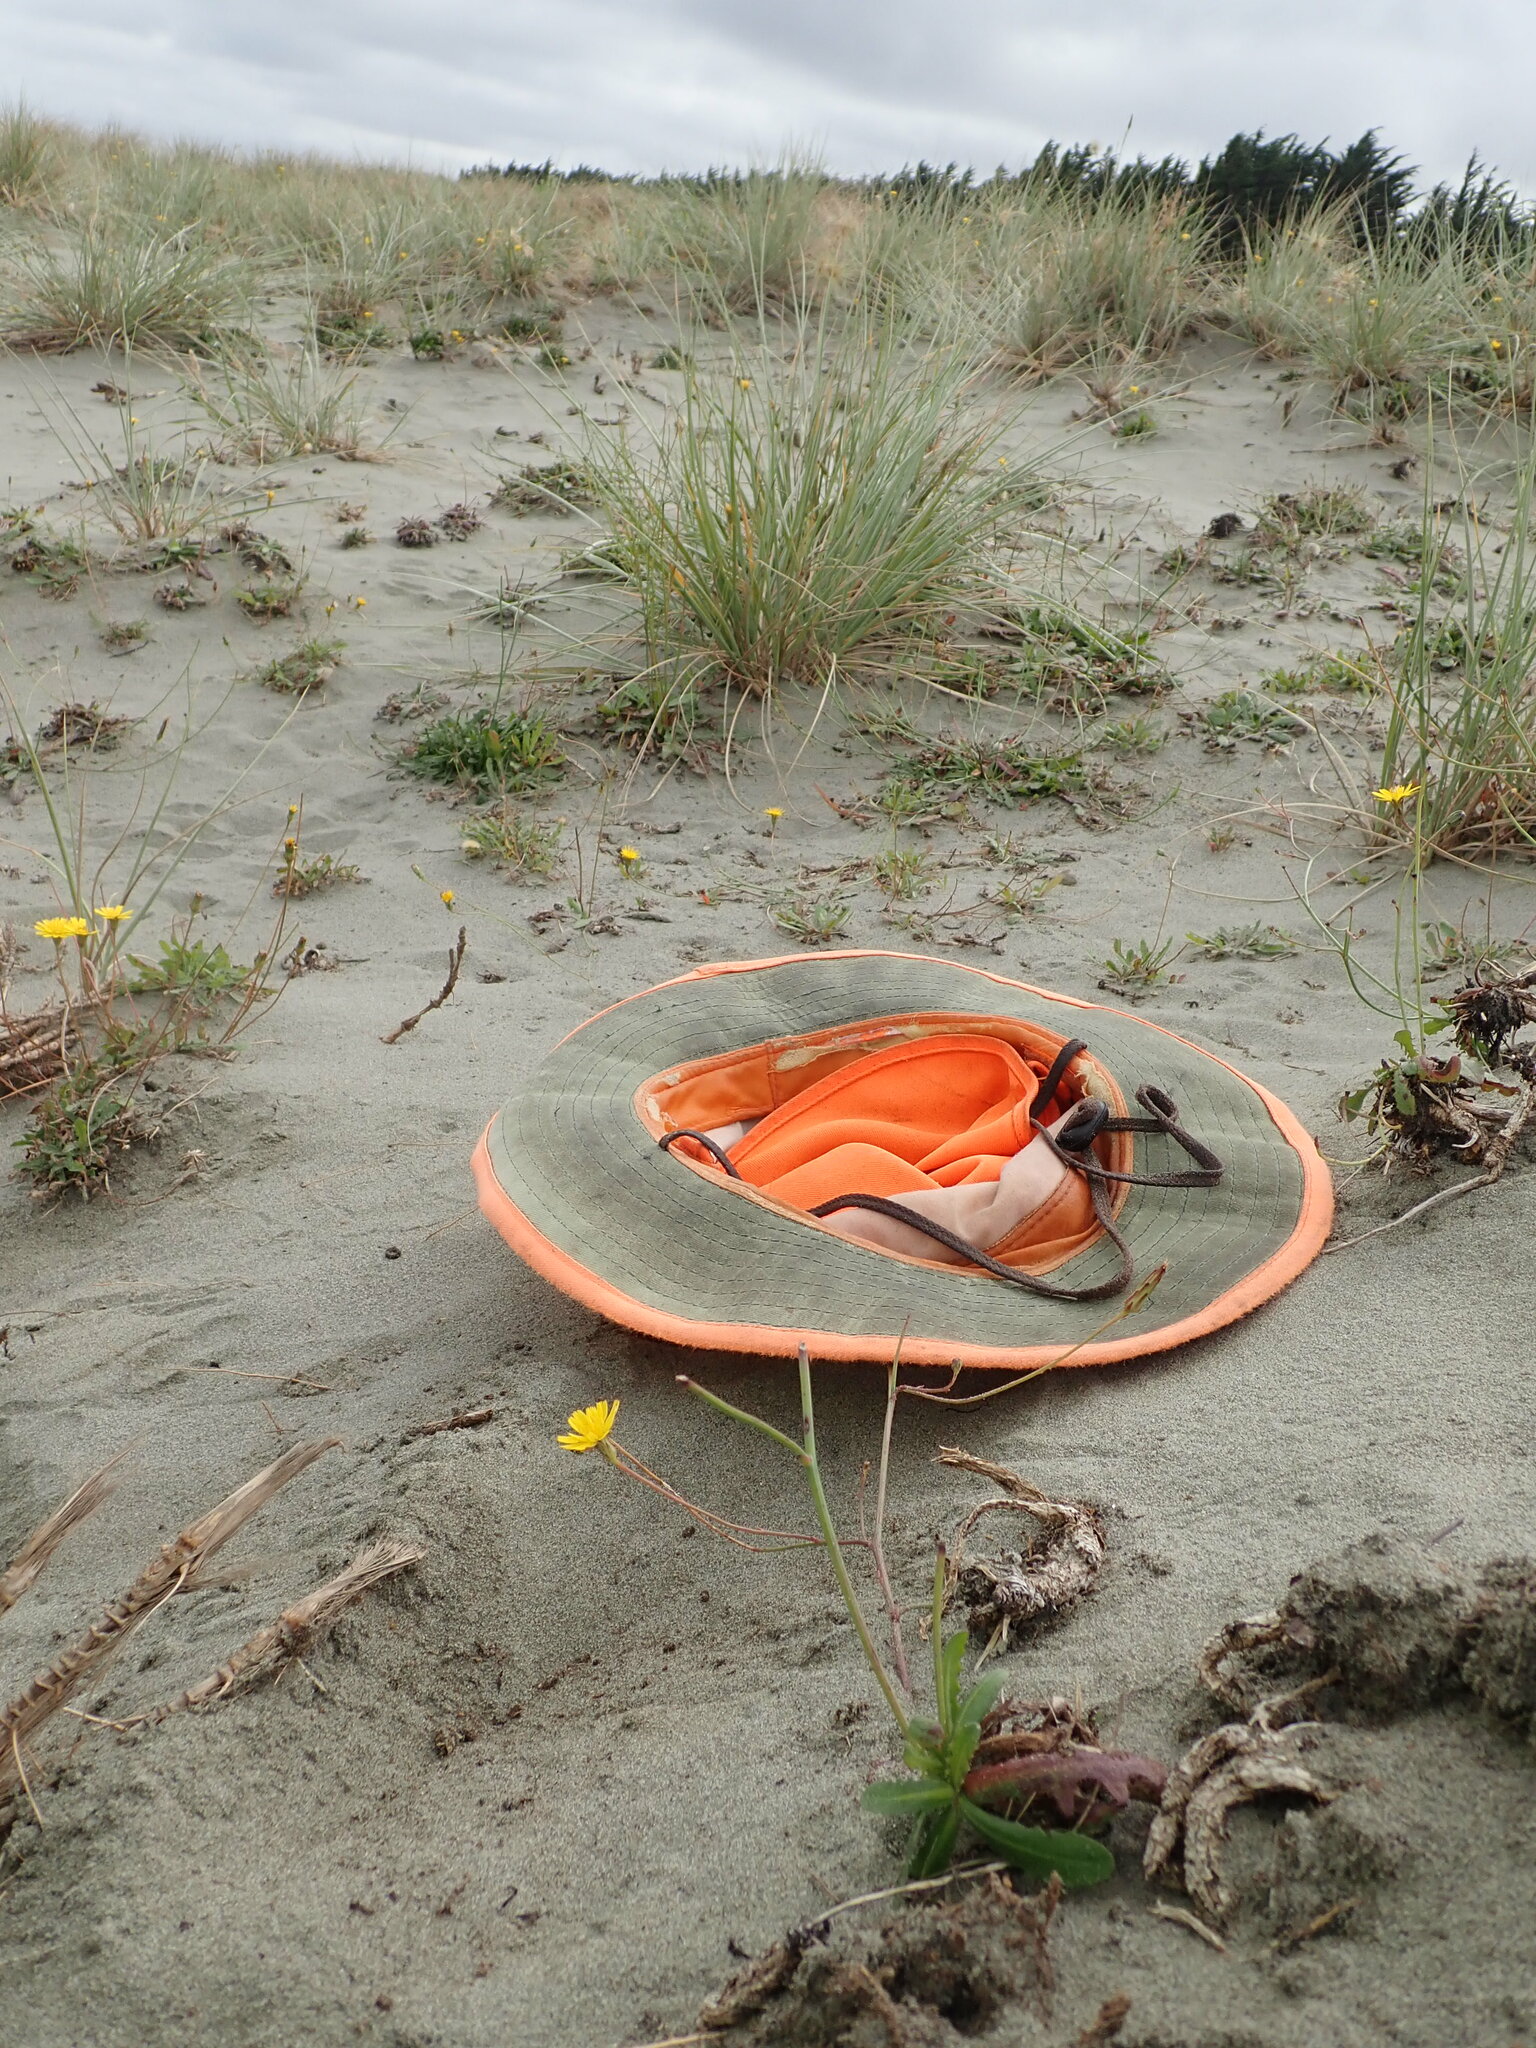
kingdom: Animalia
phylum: Arthropoda
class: Insecta
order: Hymenoptera
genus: Trichocurgus
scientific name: Trichocurgus
